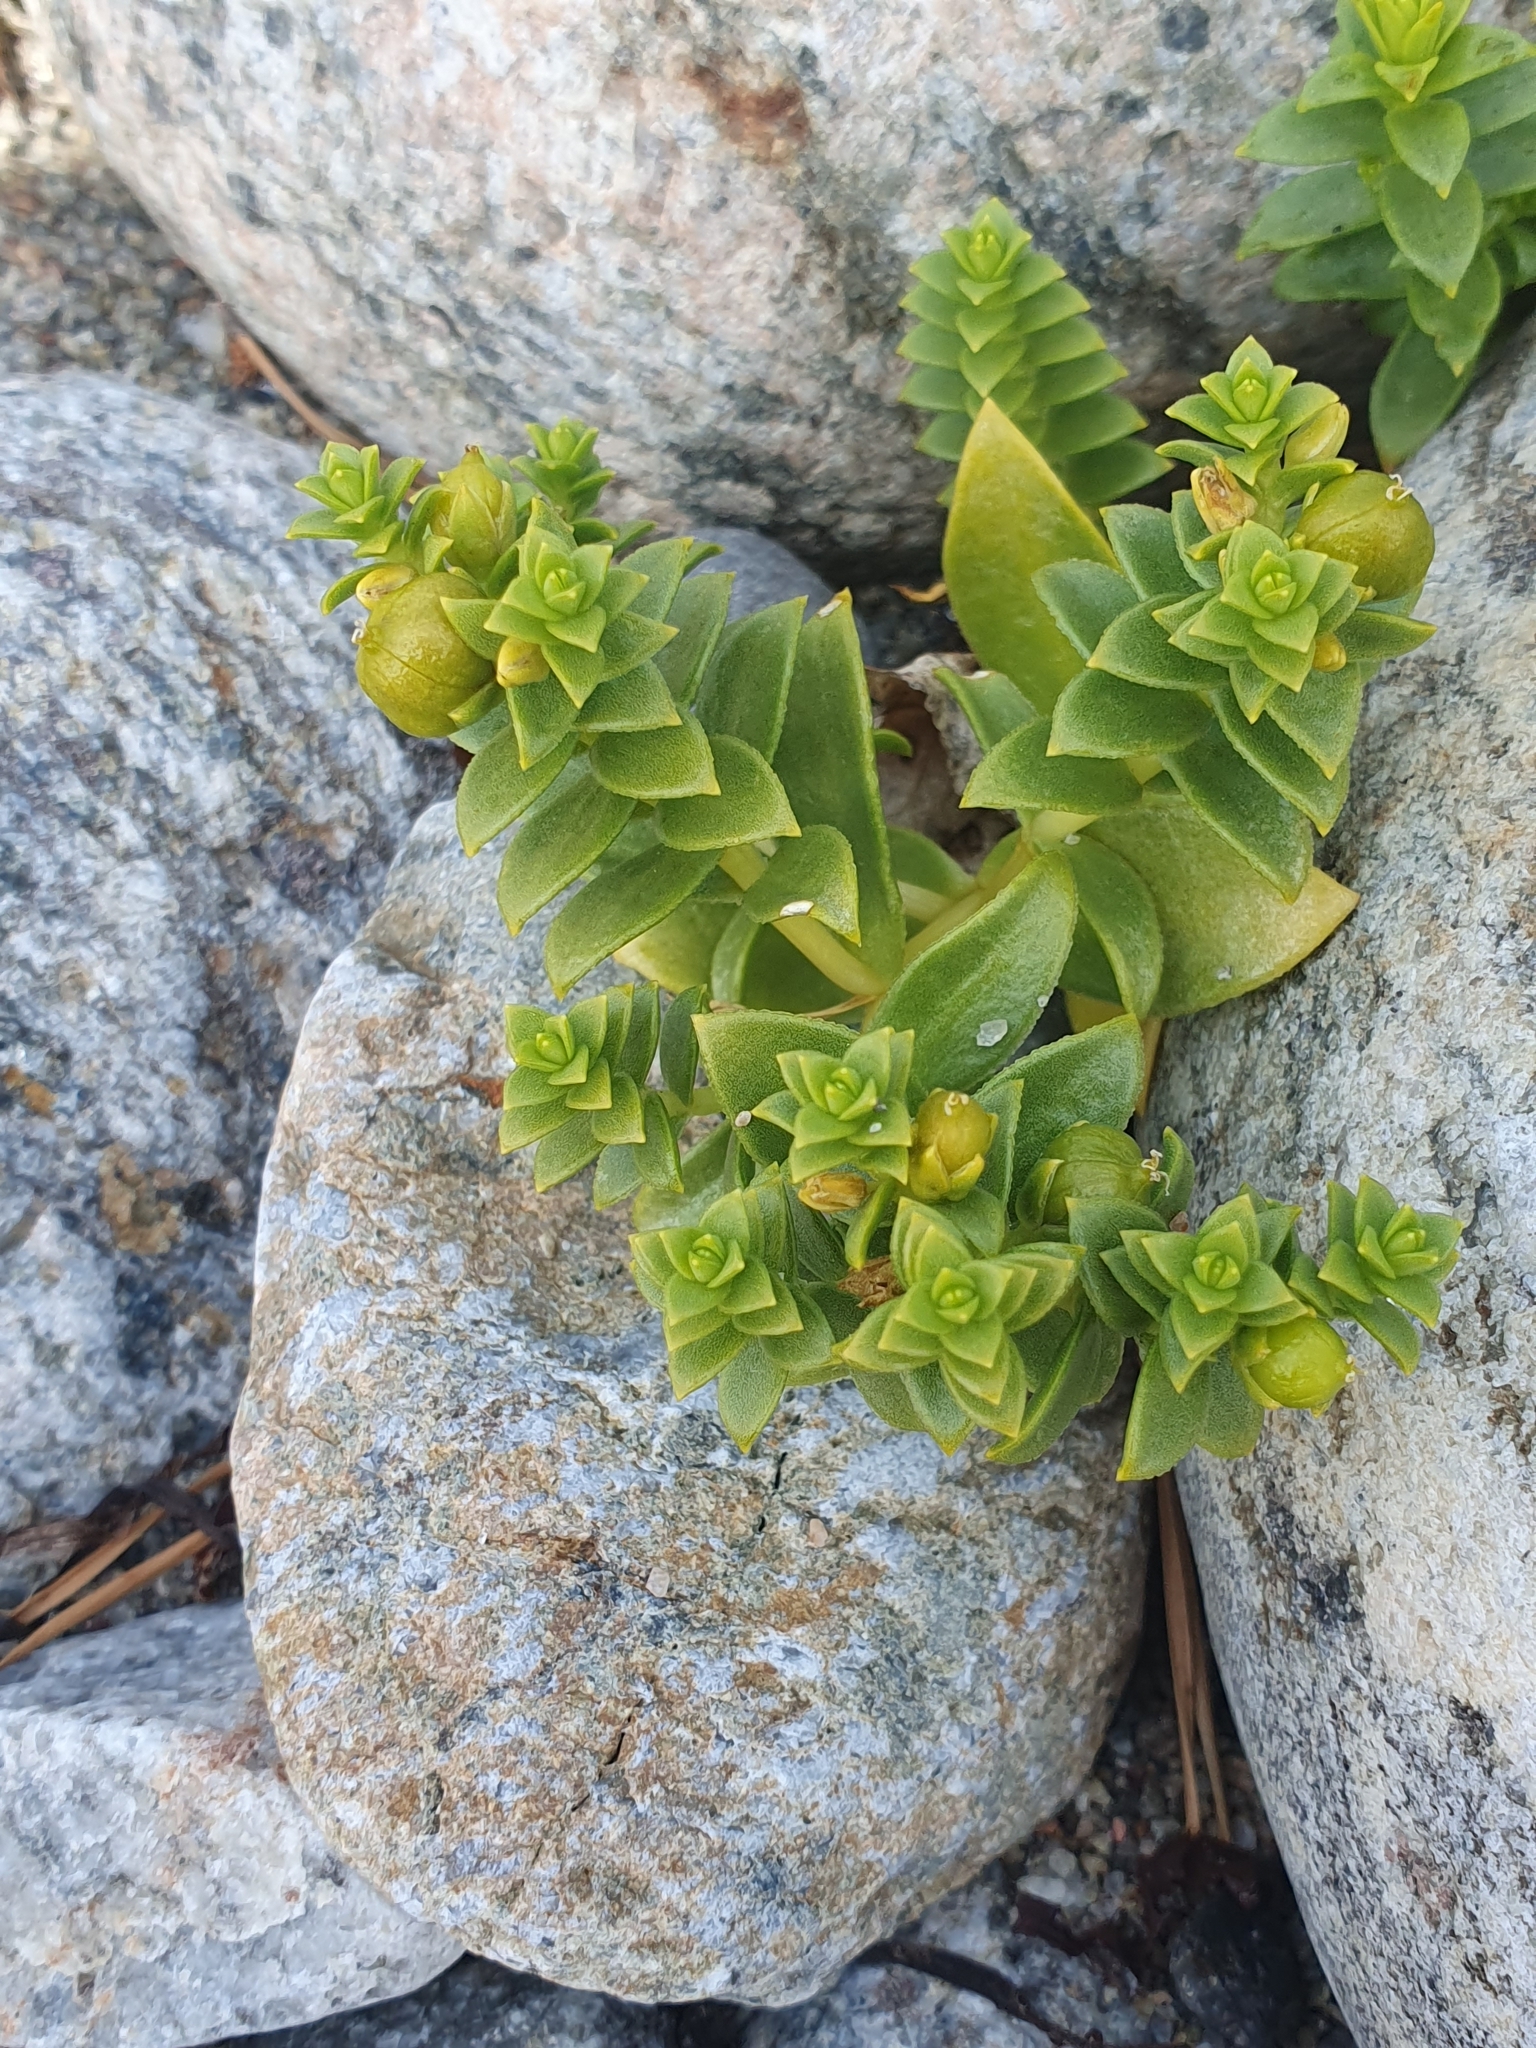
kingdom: Plantae
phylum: Tracheophyta
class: Magnoliopsida
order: Caryophyllales
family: Caryophyllaceae
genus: Honckenya
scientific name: Honckenya peploides
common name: Sea sandwort
